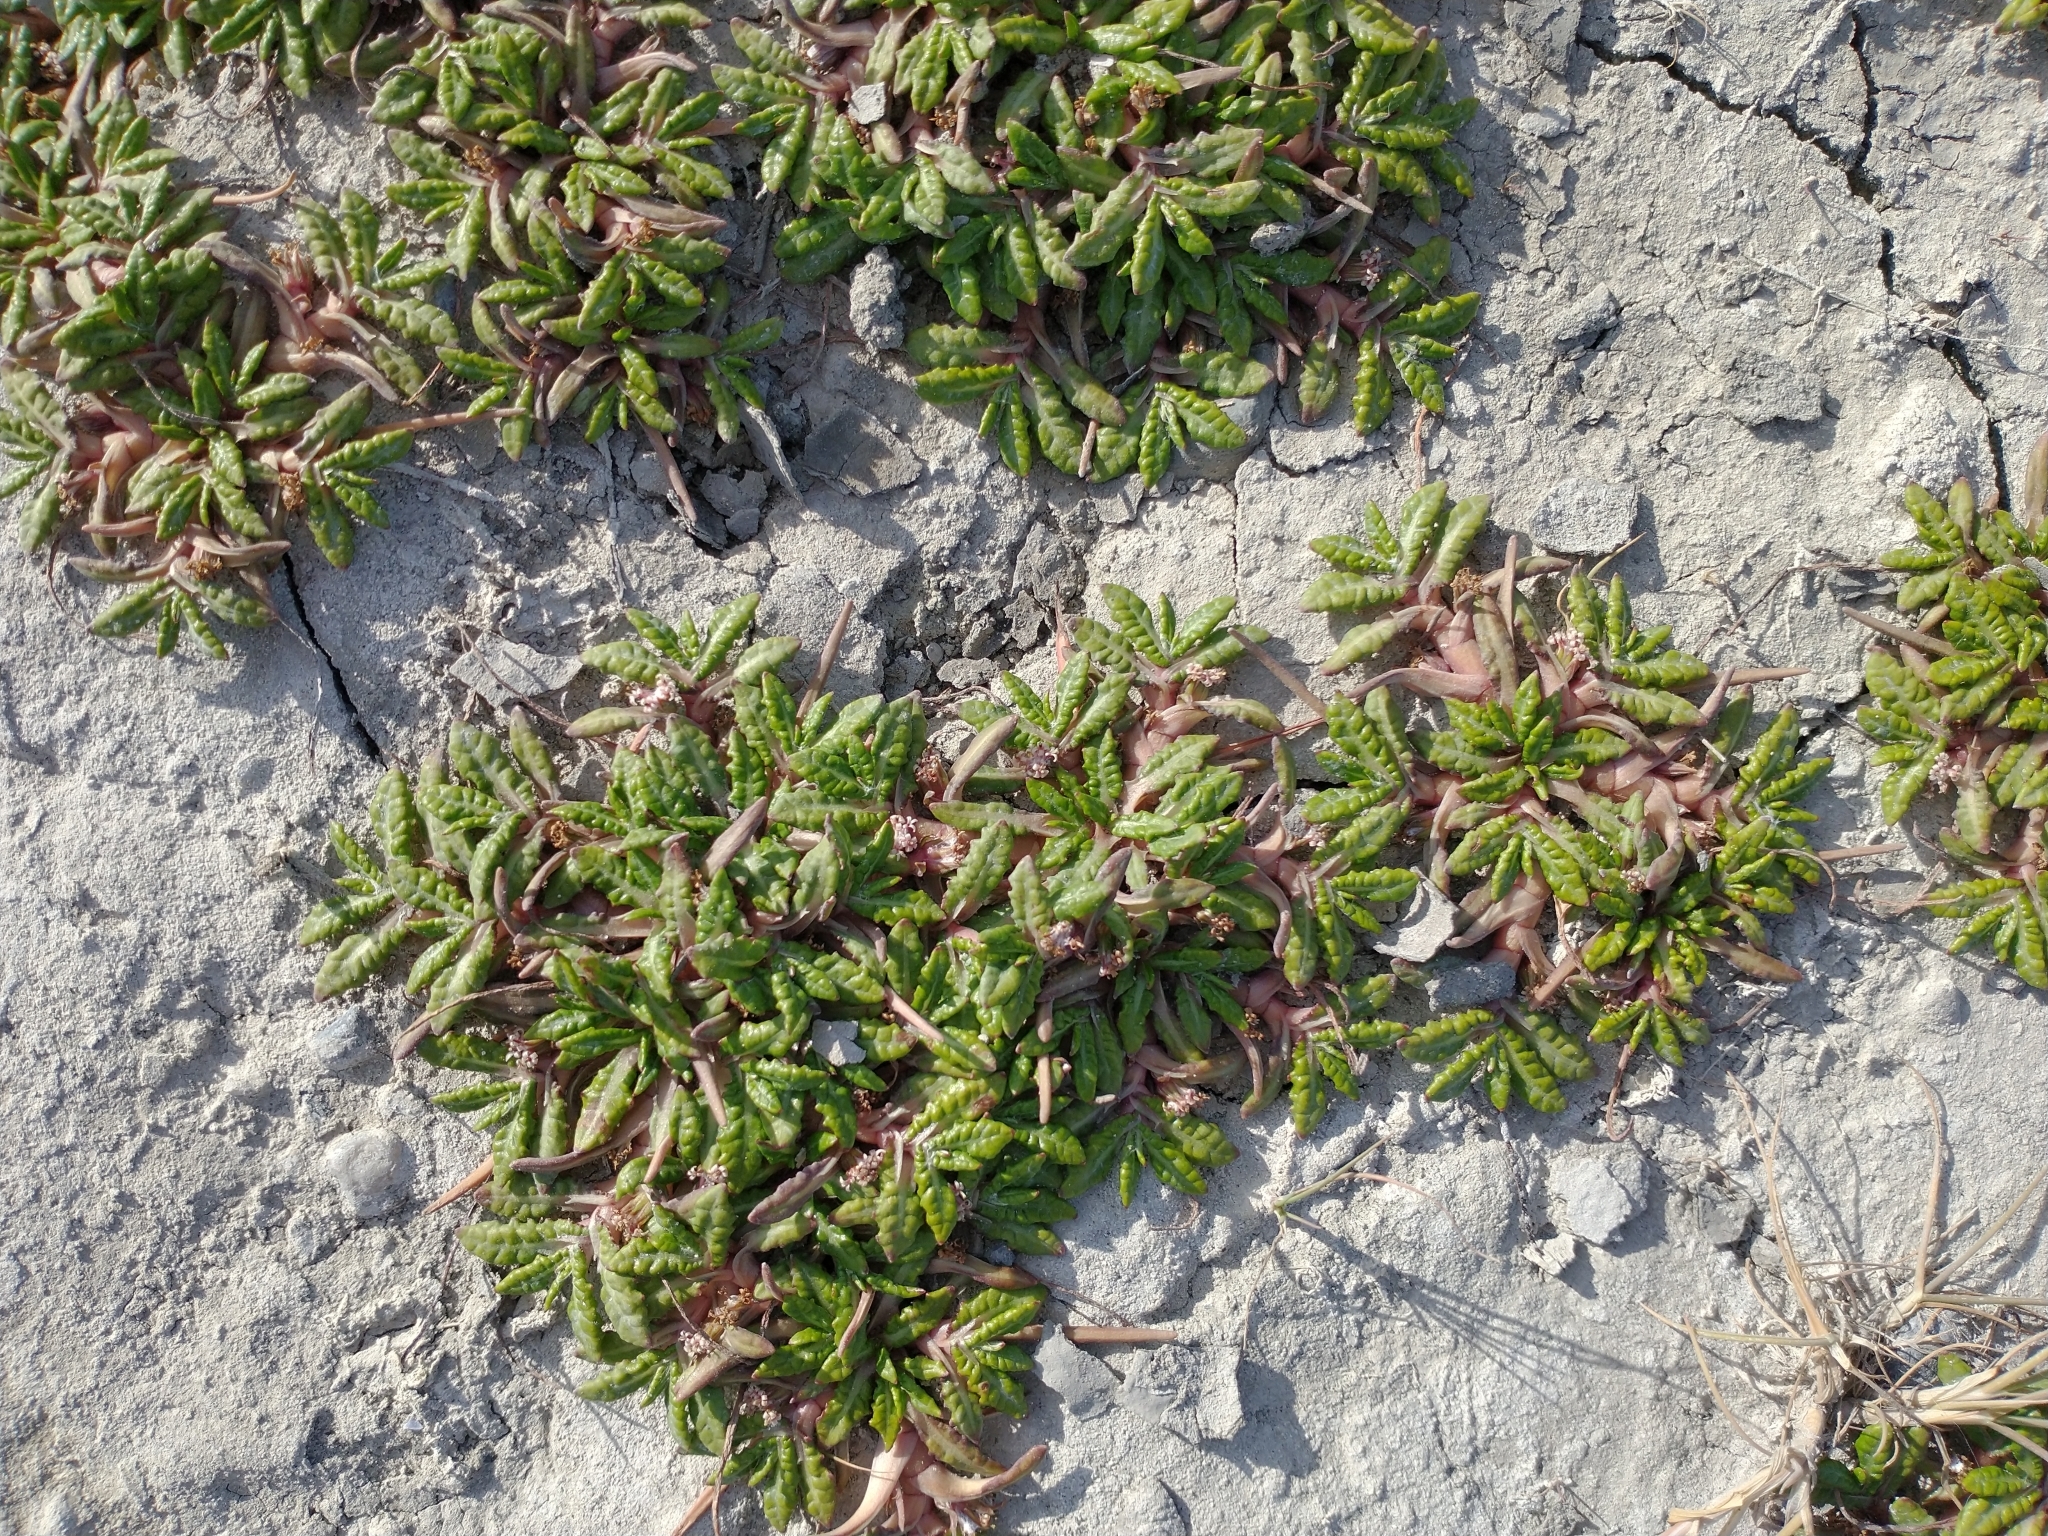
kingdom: Plantae
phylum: Tracheophyta
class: Magnoliopsida
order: Asterales
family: Asteraceae
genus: Eriachaenium
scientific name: Eriachaenium magellanicum
